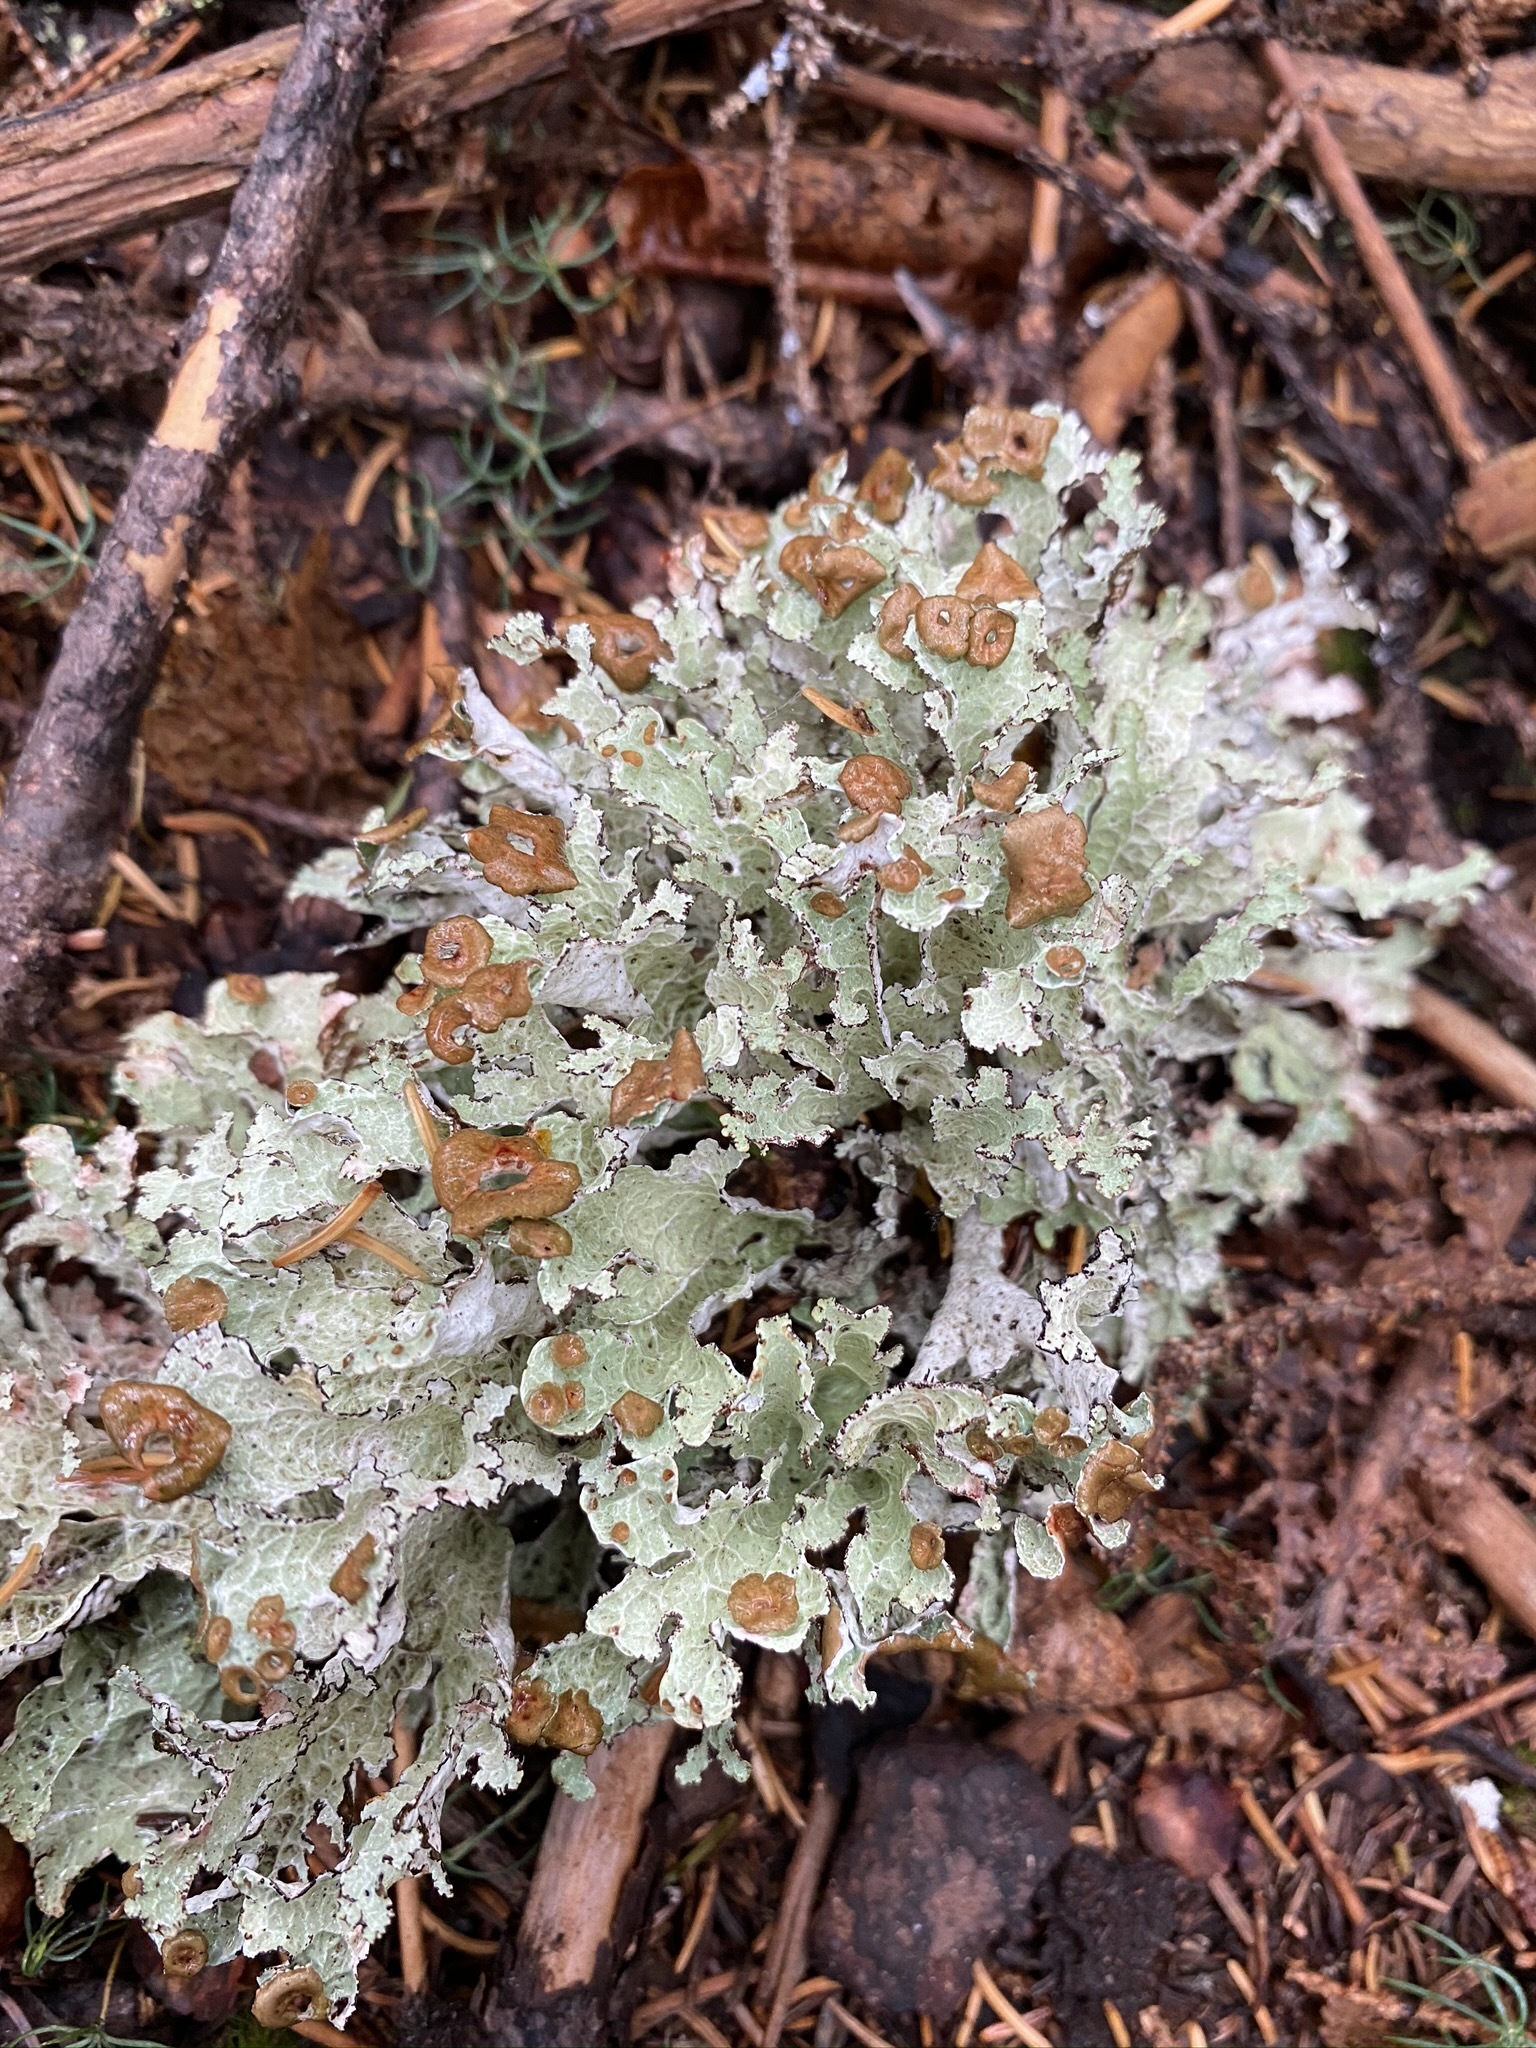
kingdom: Fungi
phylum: Ascomycota
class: Lecanoromycetes
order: Lecanorales
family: Parmeliaceae
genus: Platismatia
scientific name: Platismatia tuckermanii
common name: Crumpled rag lichen
